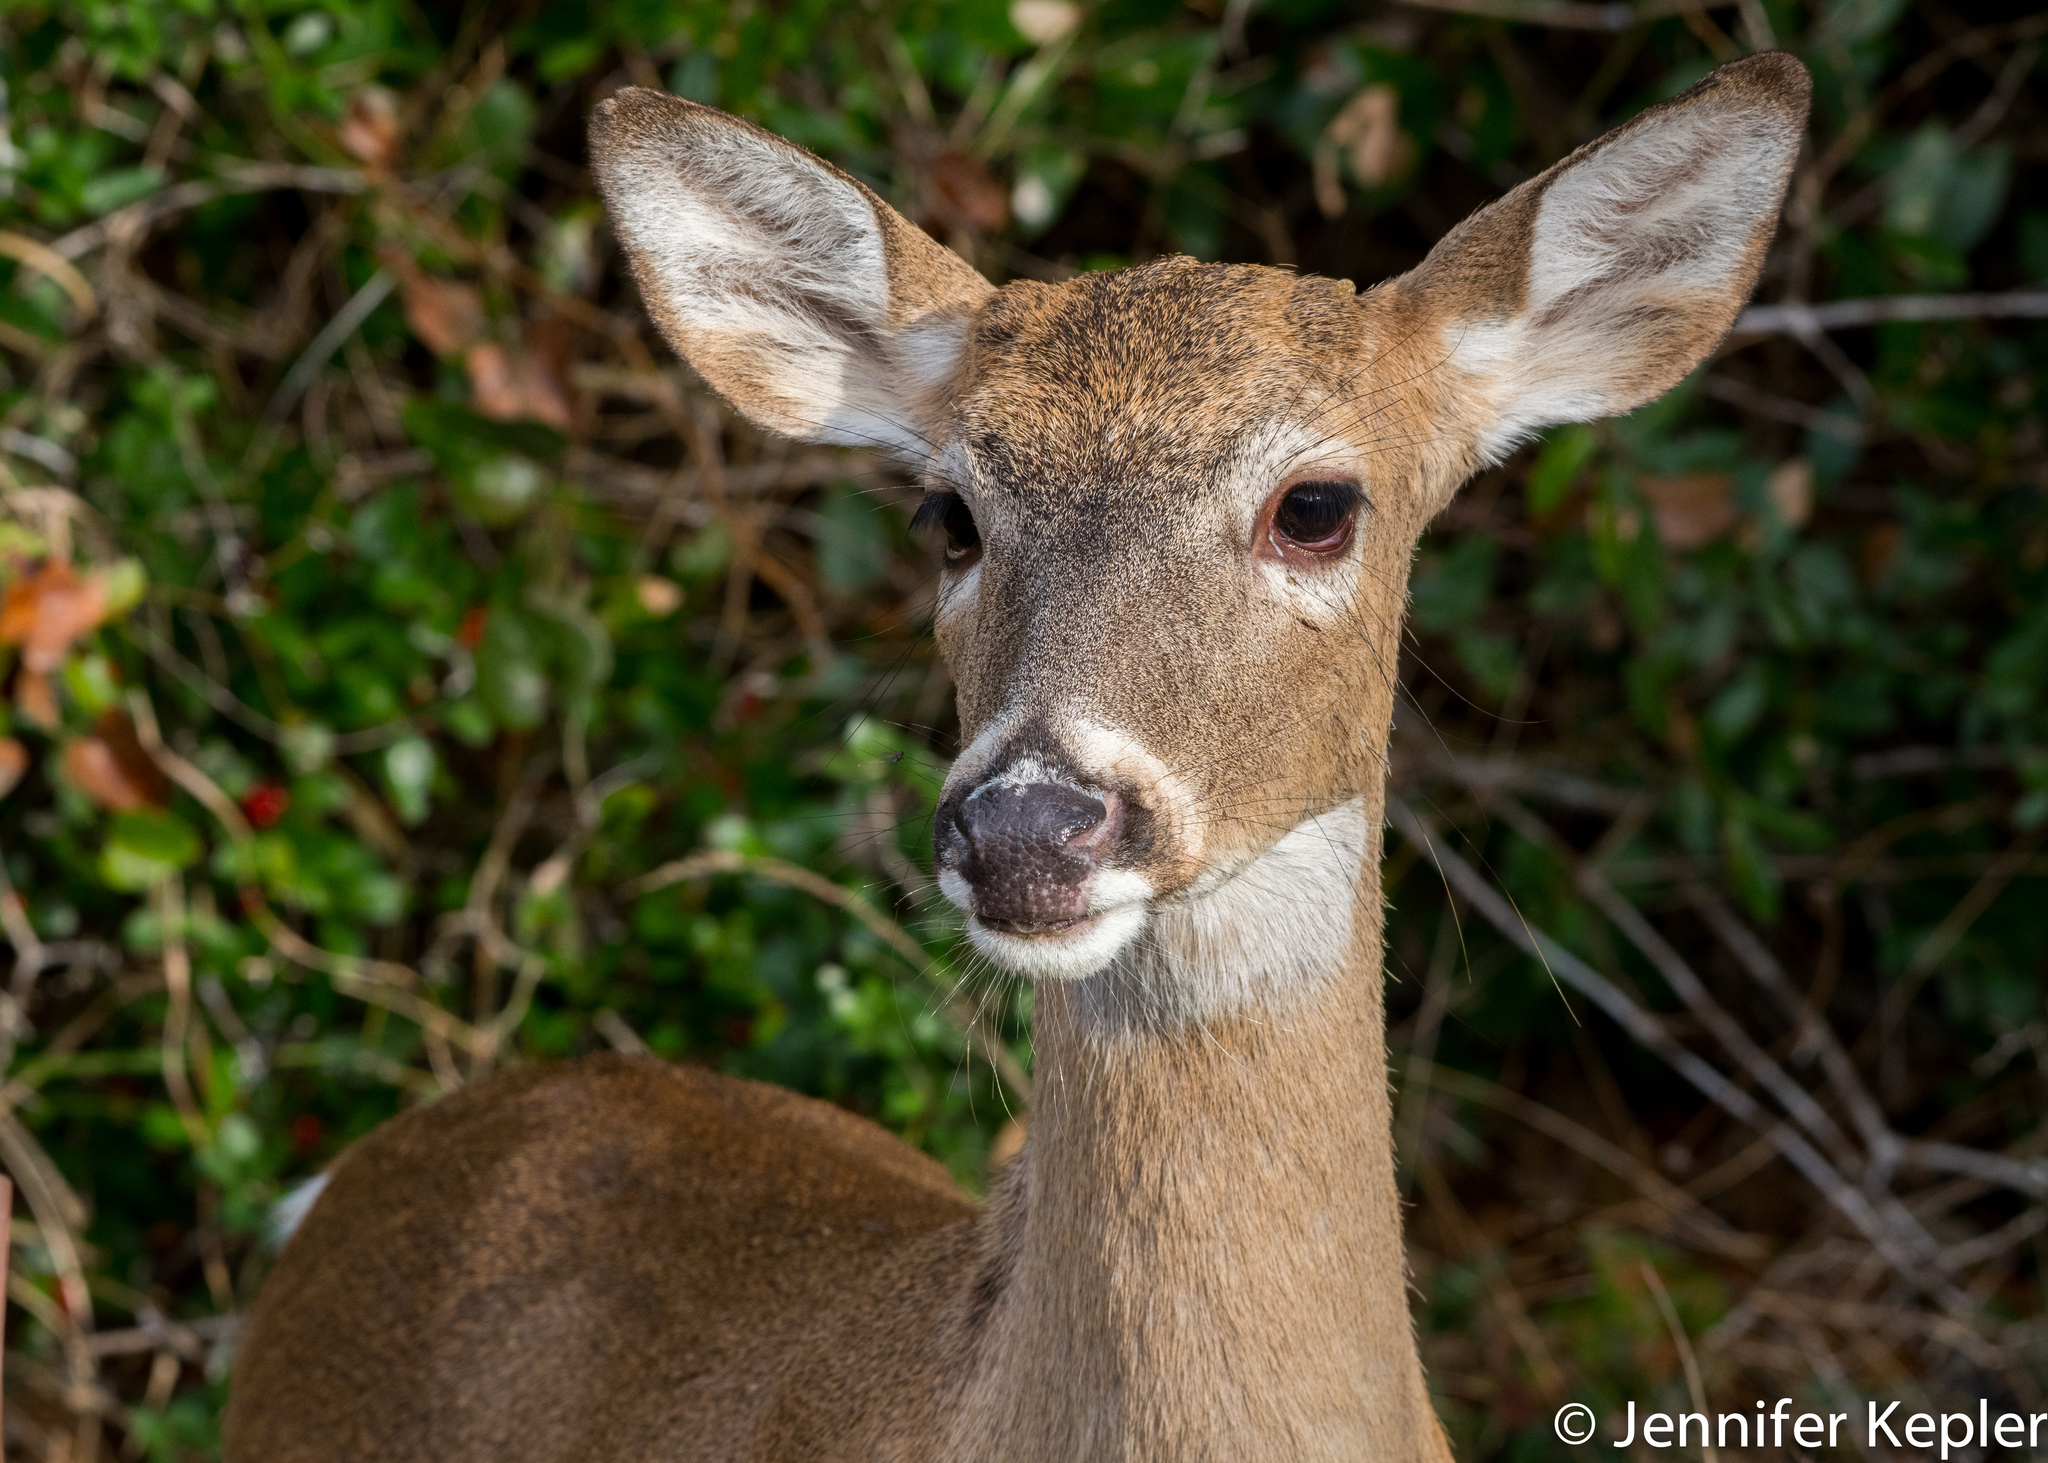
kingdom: Animalia
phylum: Chordata
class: Mammalia
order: Artiodactyla
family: Cervidae
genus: Odocoileus
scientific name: Odocoileus virginianus
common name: White-tailed deer
